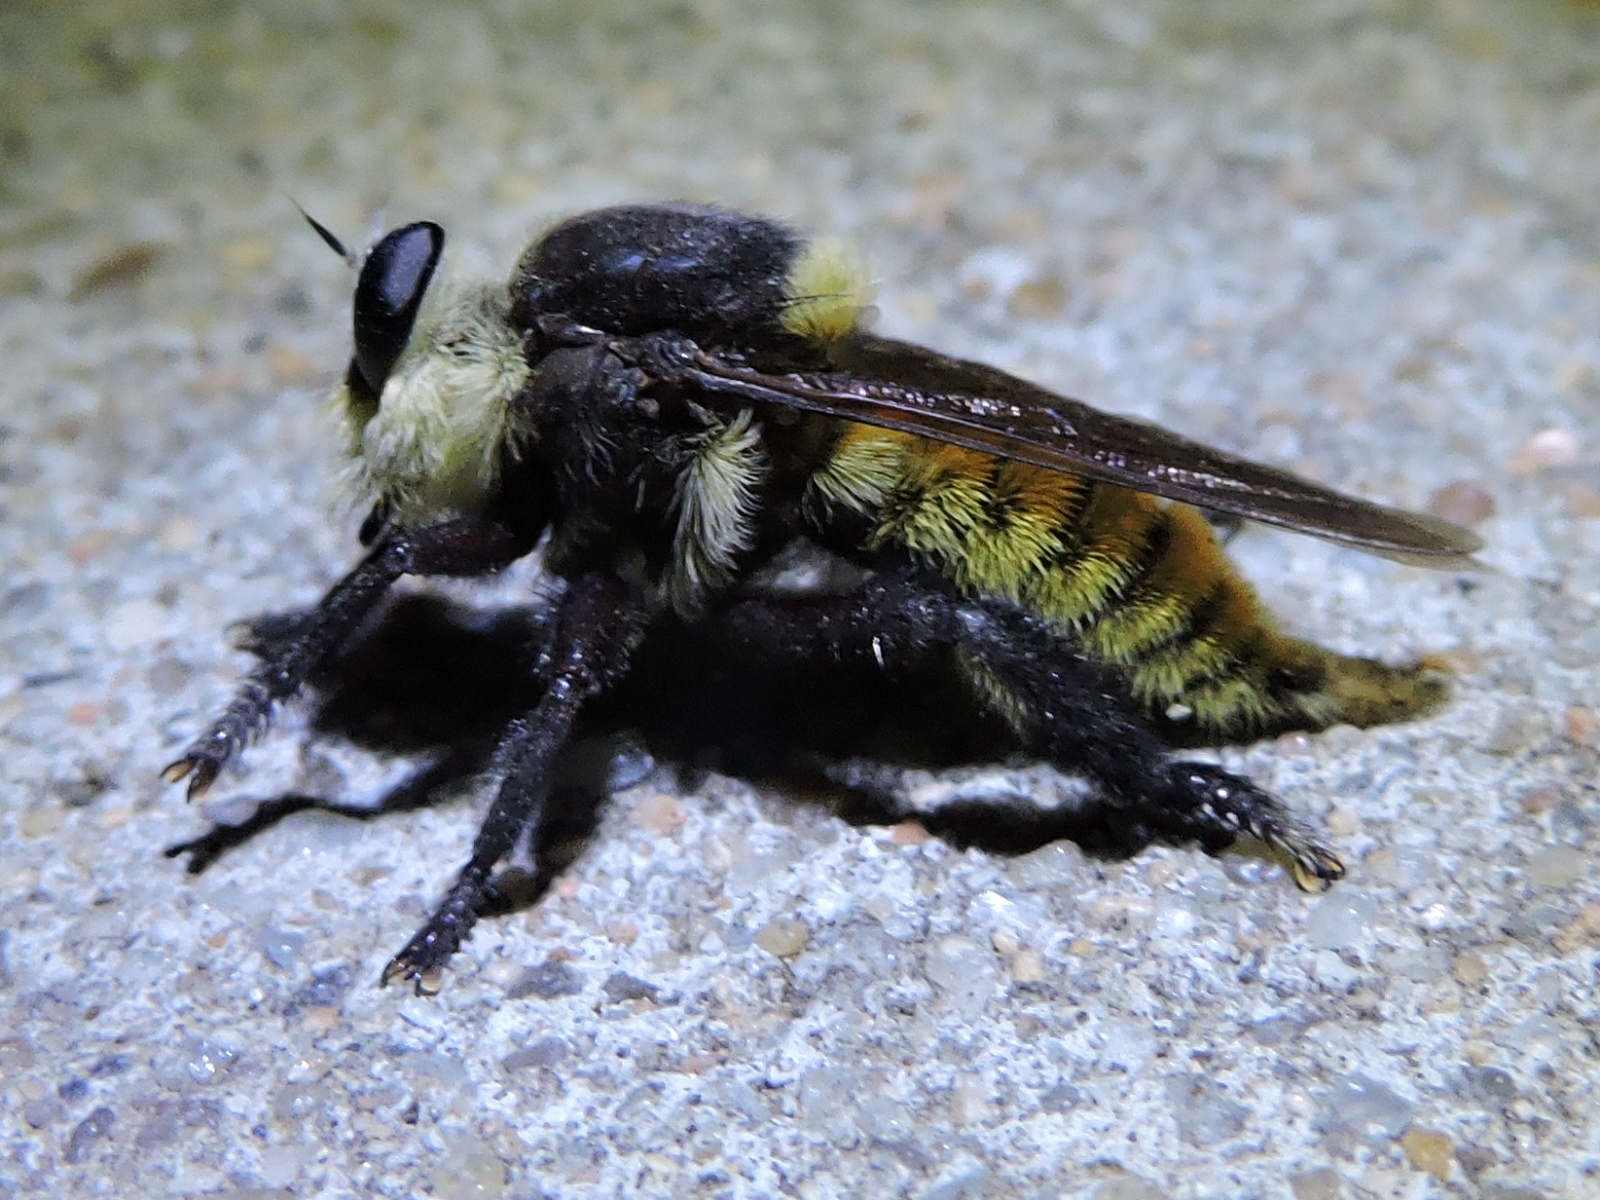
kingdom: Animalia
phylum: Arthropoda
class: Insecta
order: Diptera
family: Asilidae
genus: Mallophora
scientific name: Mallophora fautrix
